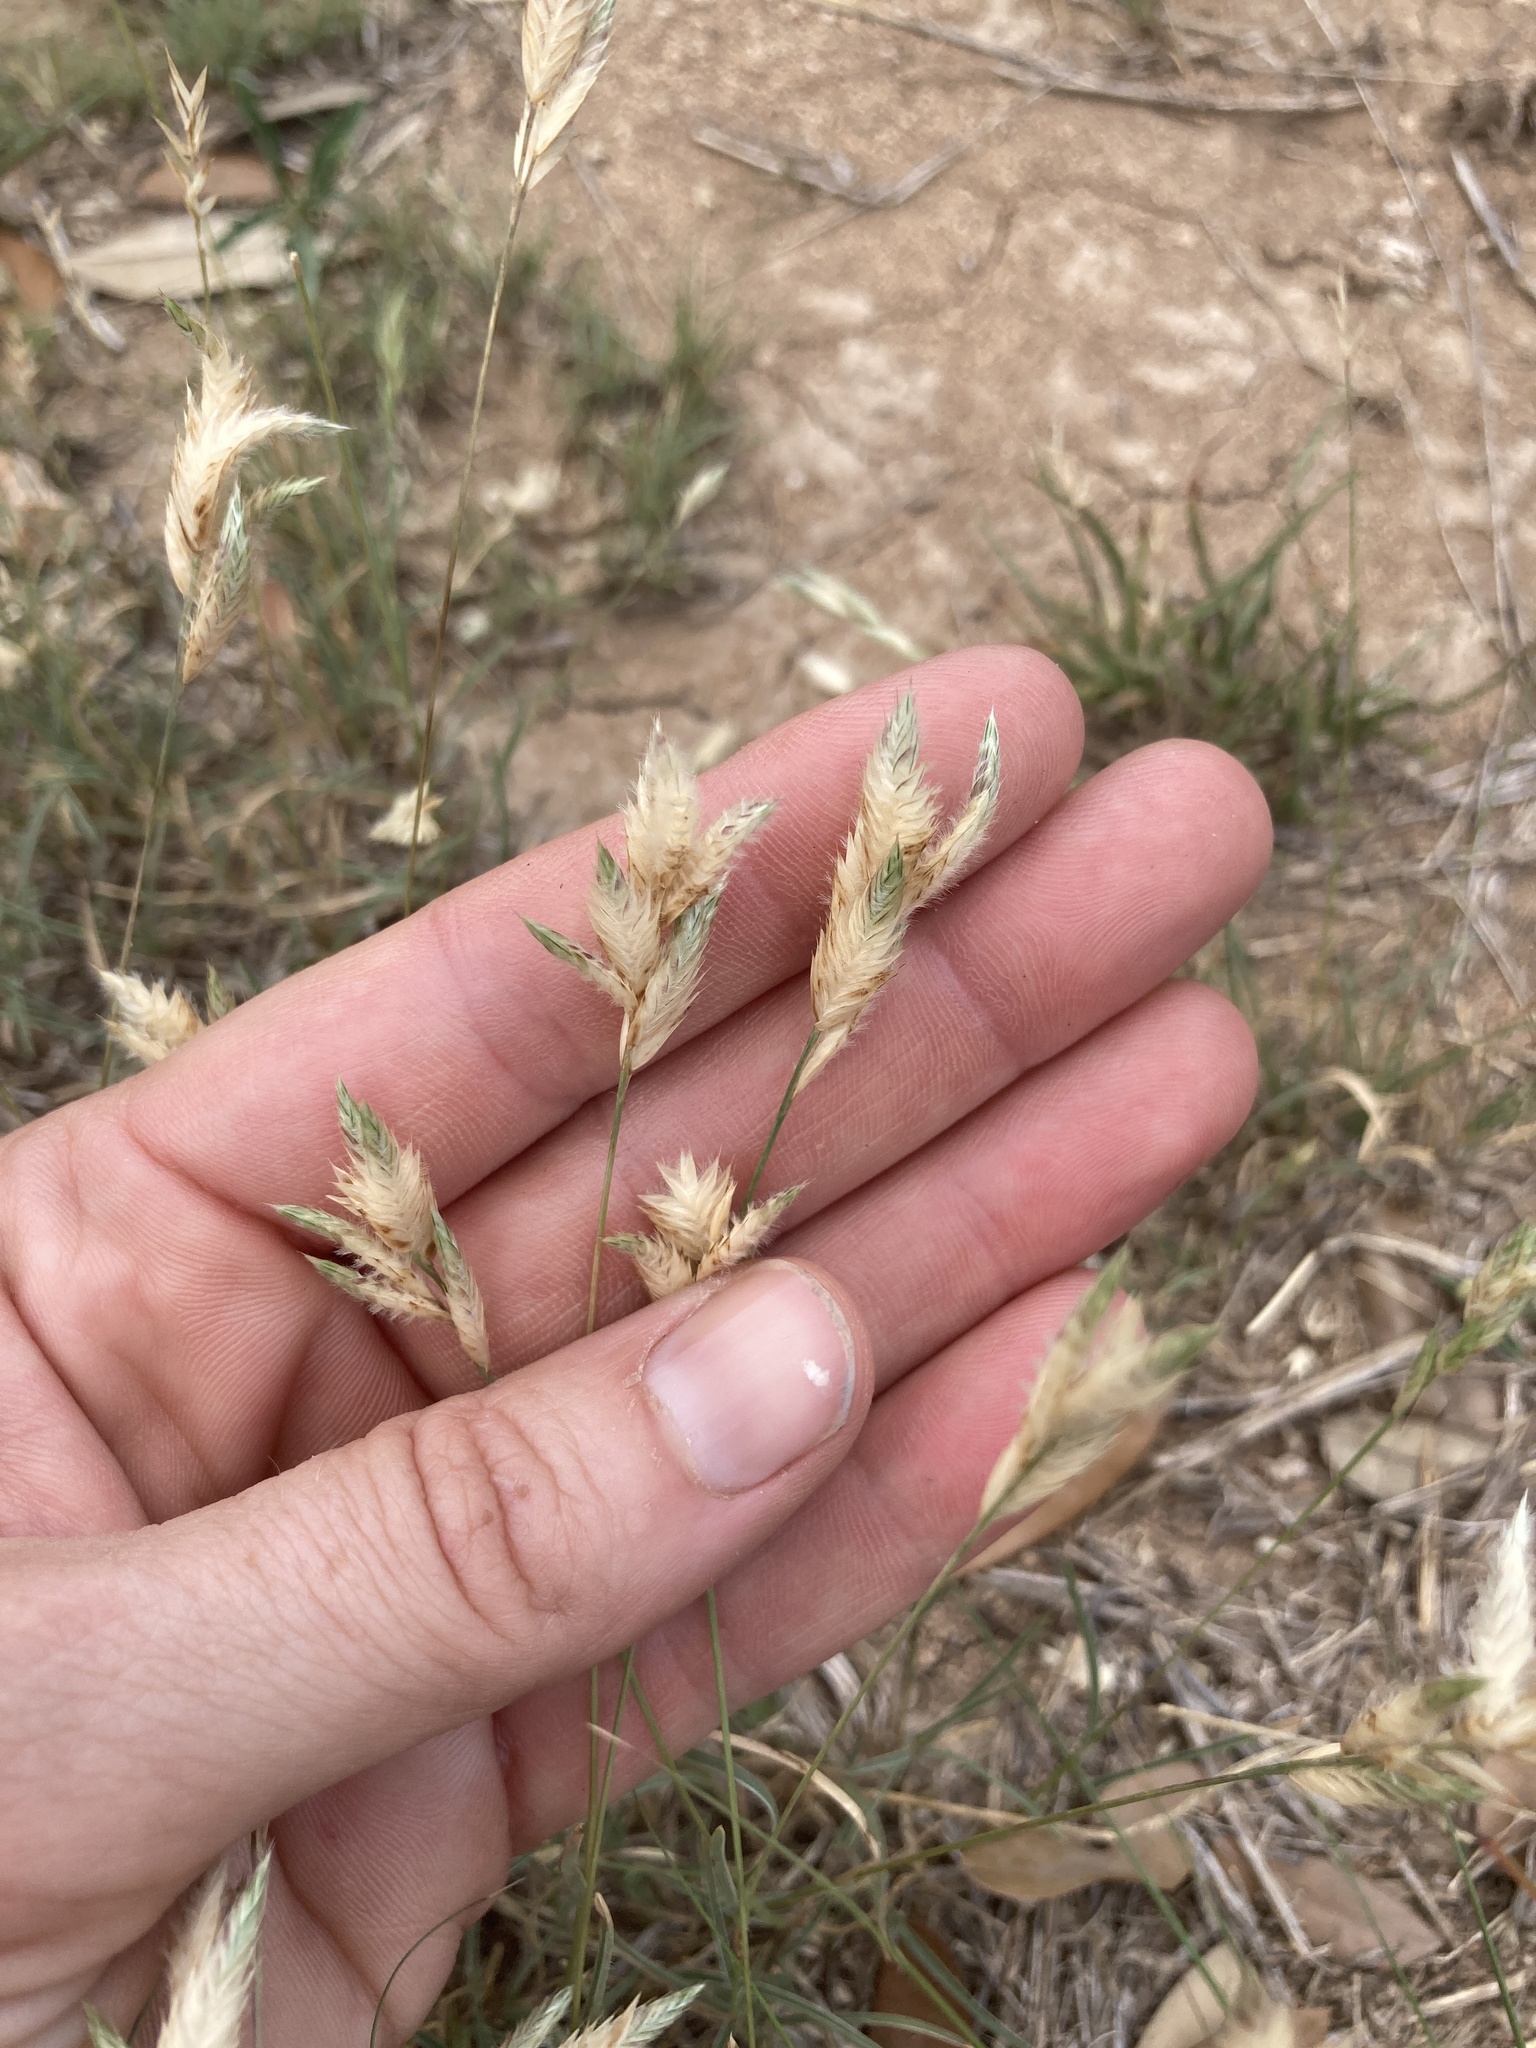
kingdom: Plantae
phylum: Tracheophyta
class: Liliopsida
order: Poales
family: Poaceae
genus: Erioneuron
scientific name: Erioneuron pilosum
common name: Hairy woolly grass
